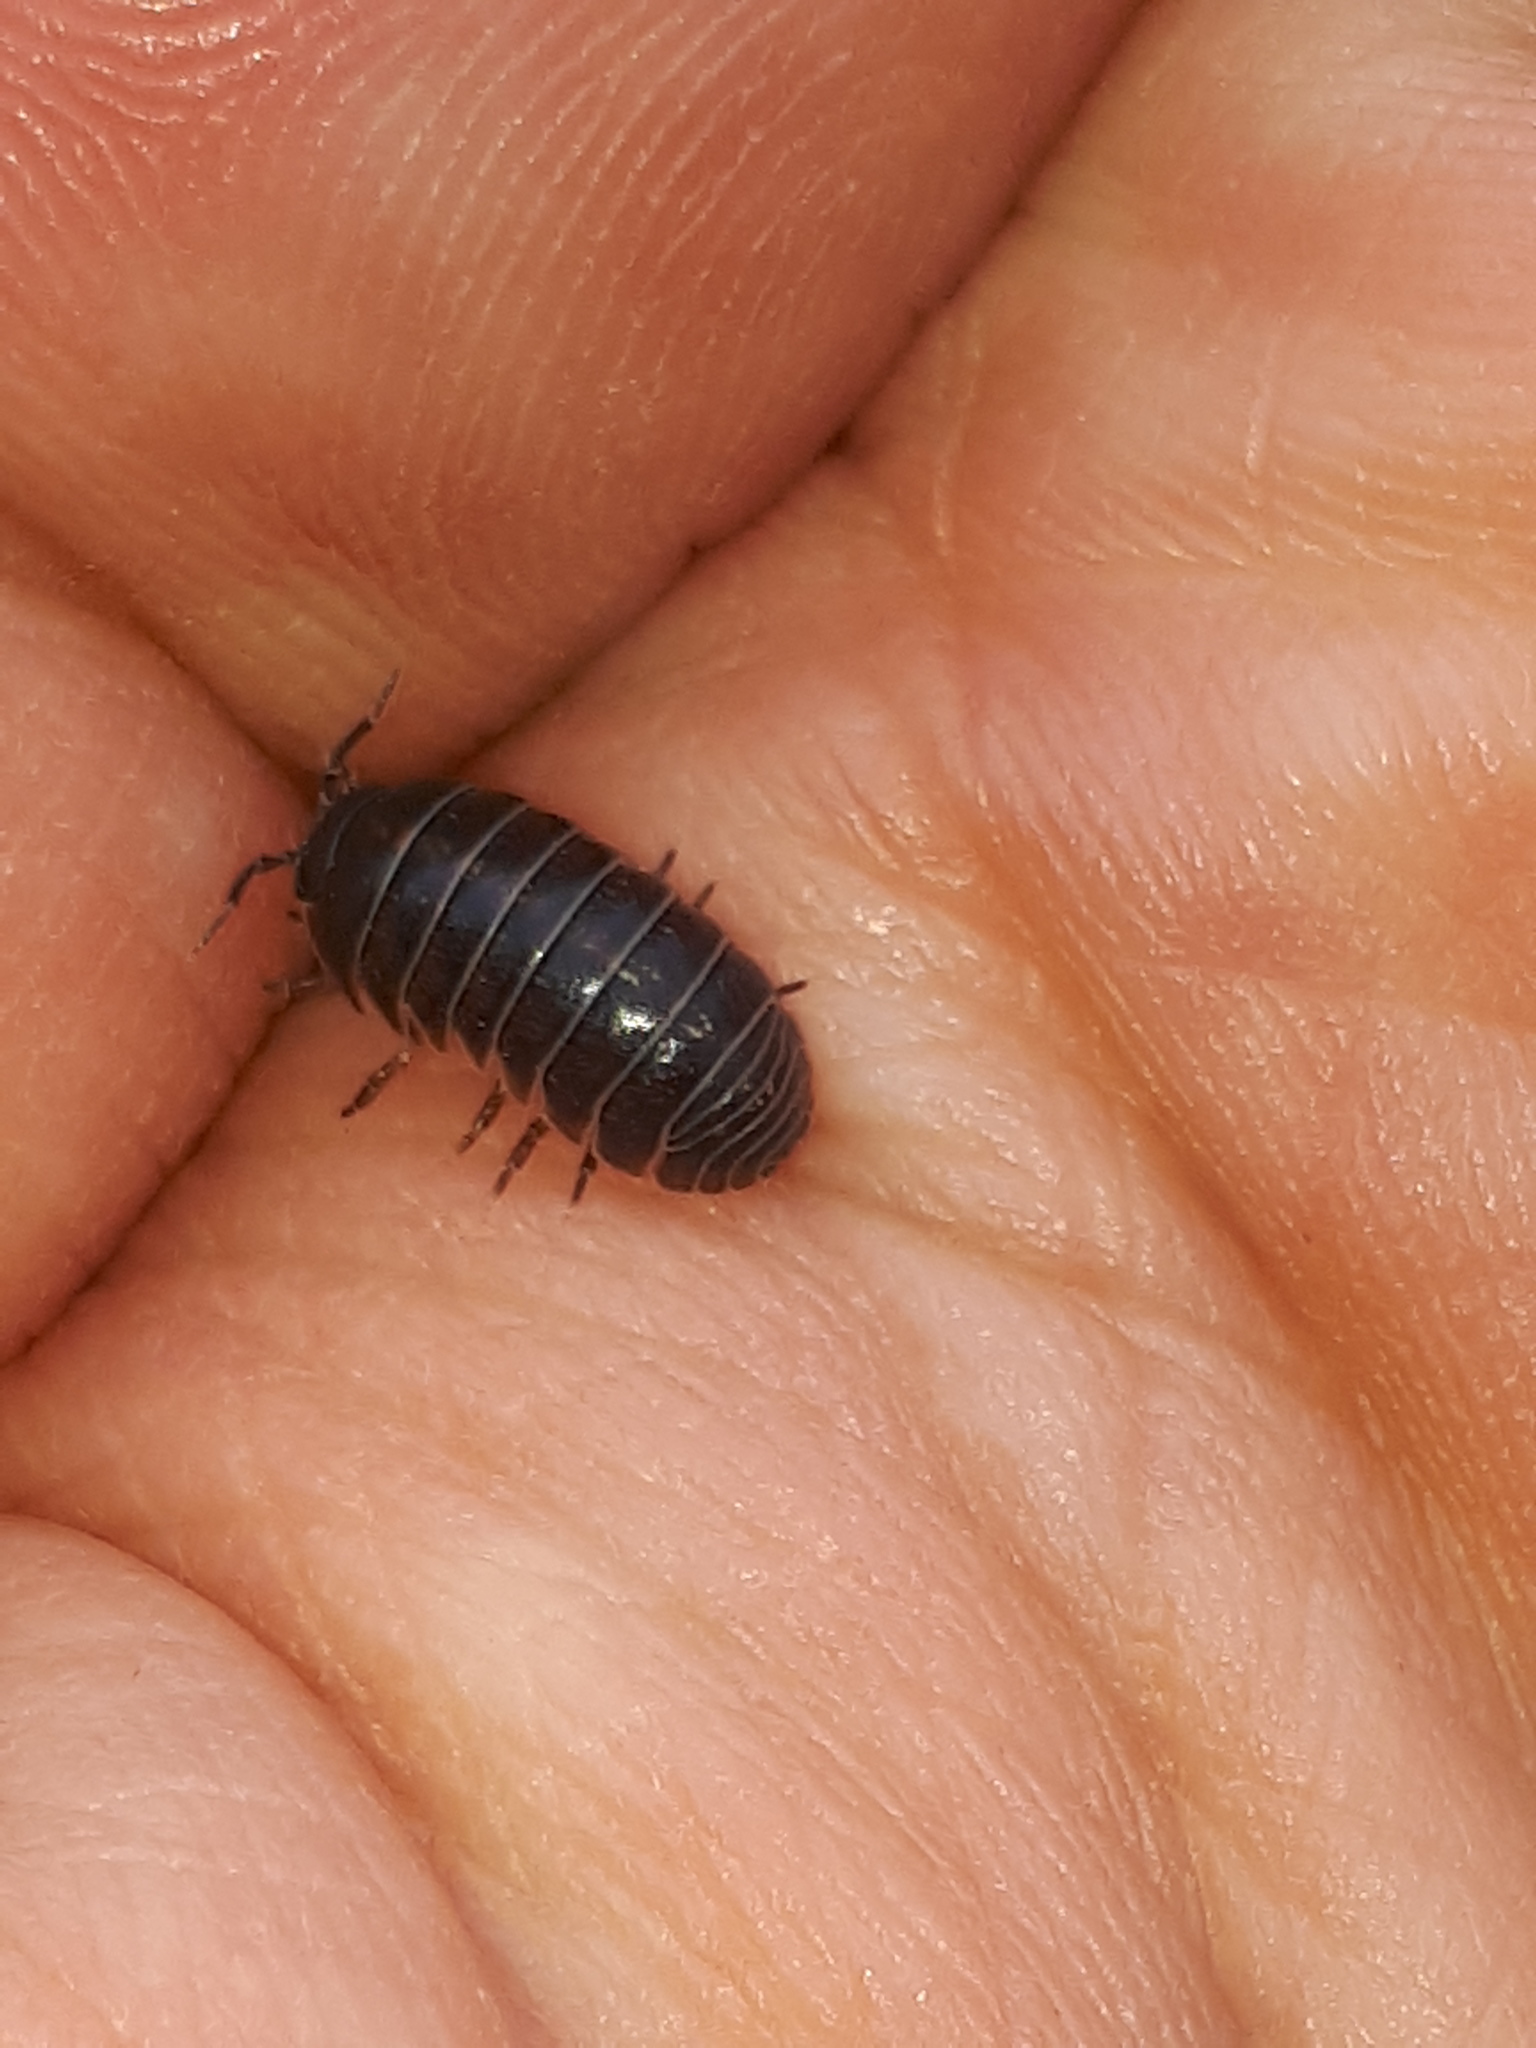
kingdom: Animalia
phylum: Arthropoda
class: Malacostraca
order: Isopoda
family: Armadillidiidae
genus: Armadillidium
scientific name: Armadillidium vulgare
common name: Common pill woodlouse
